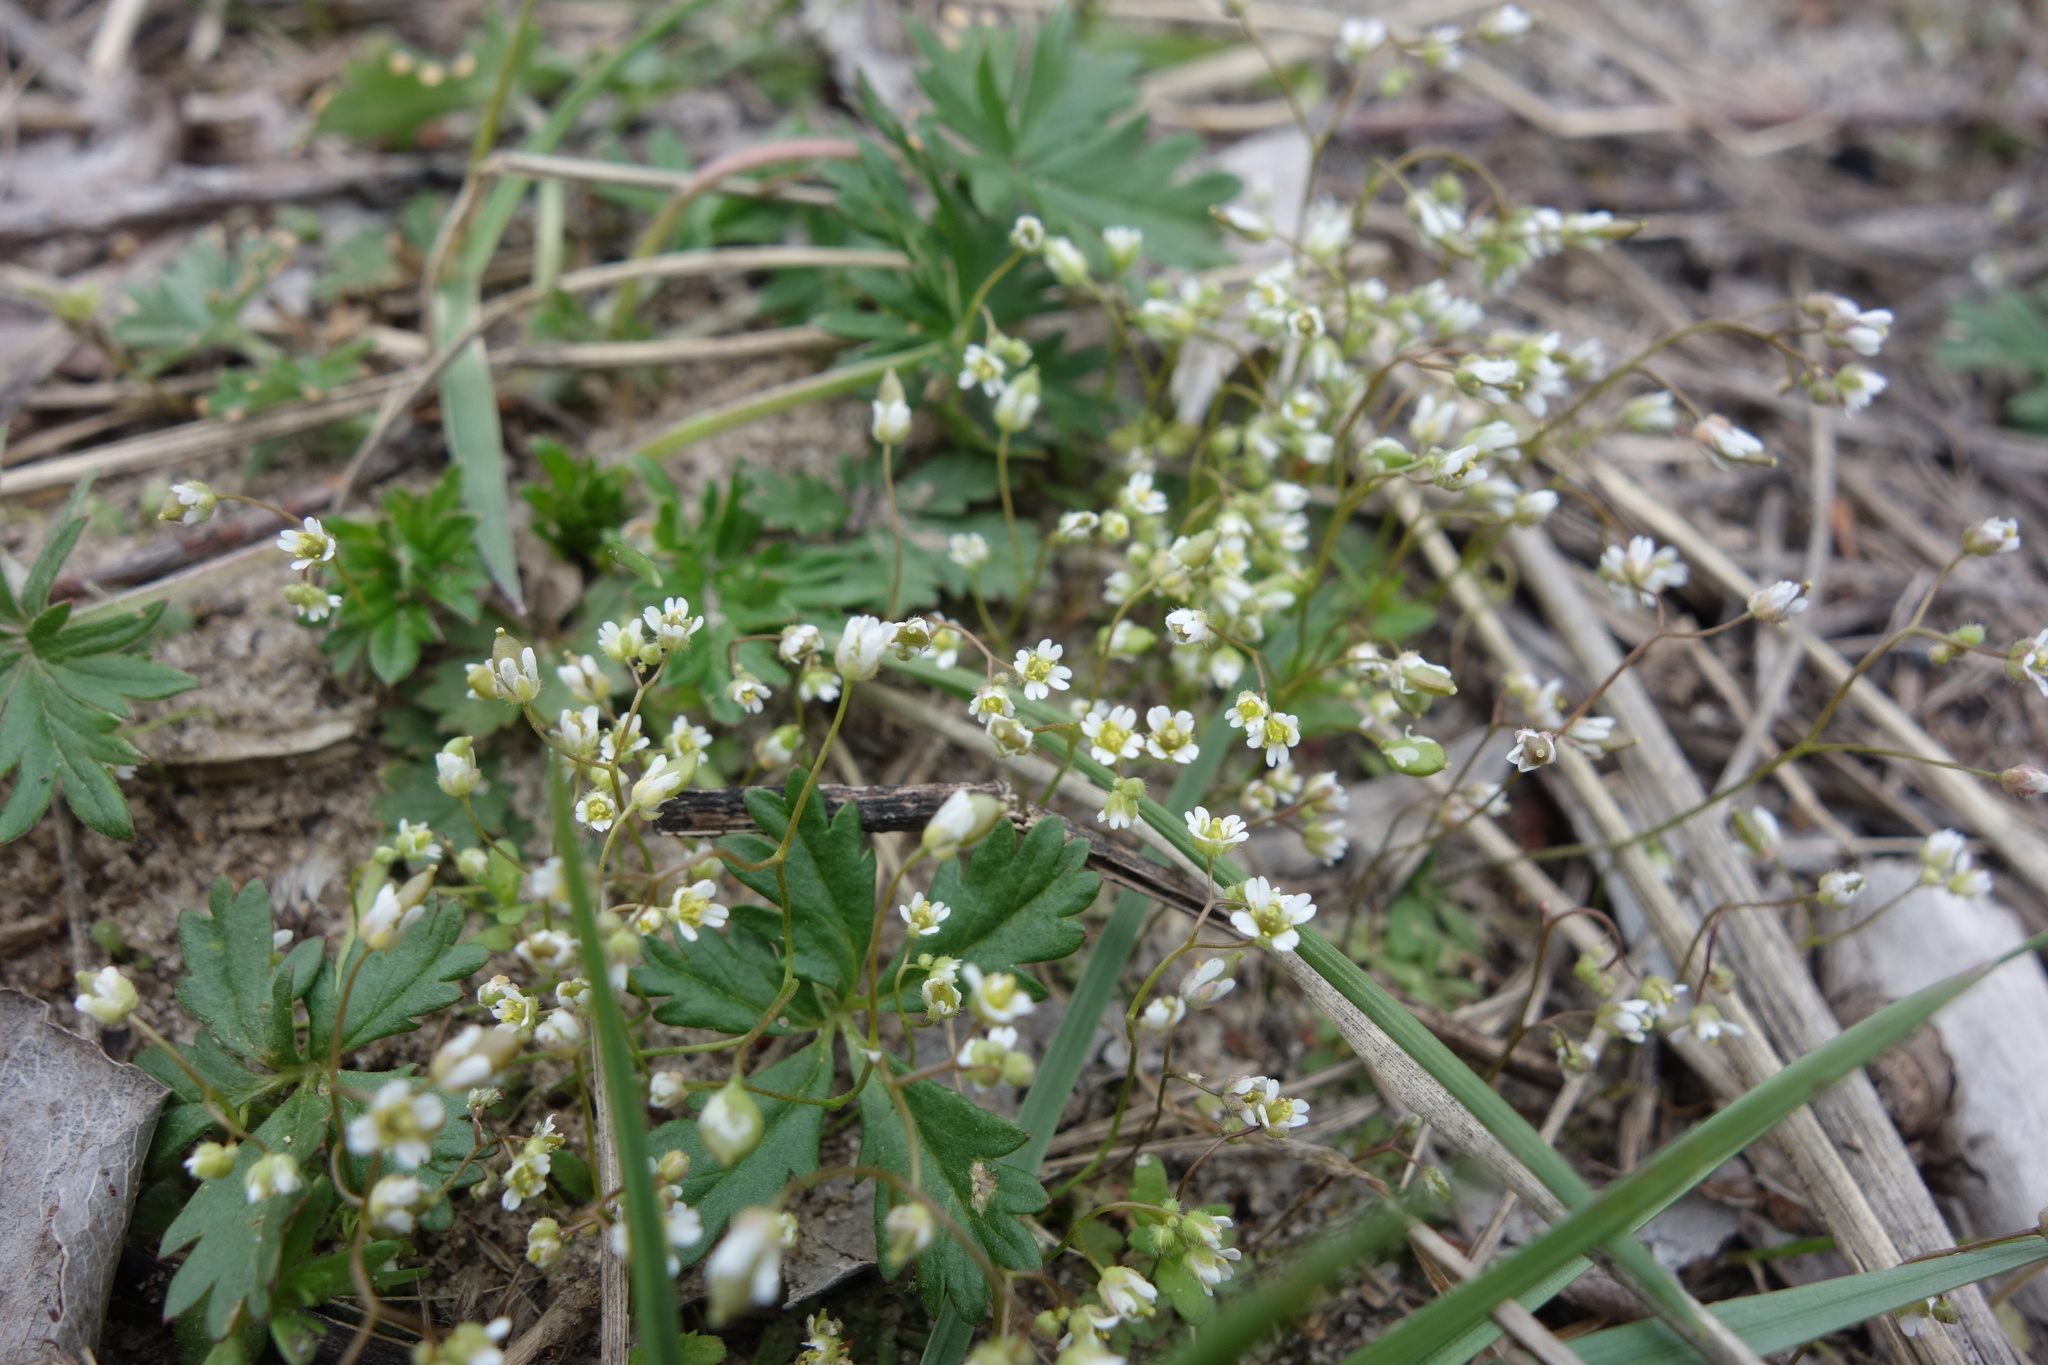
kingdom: Plantae
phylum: Tracheophyta
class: Magnoliopsida
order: Brassicales
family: Brassicaceae
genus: Draba
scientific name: Draba verna
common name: Spring draba
